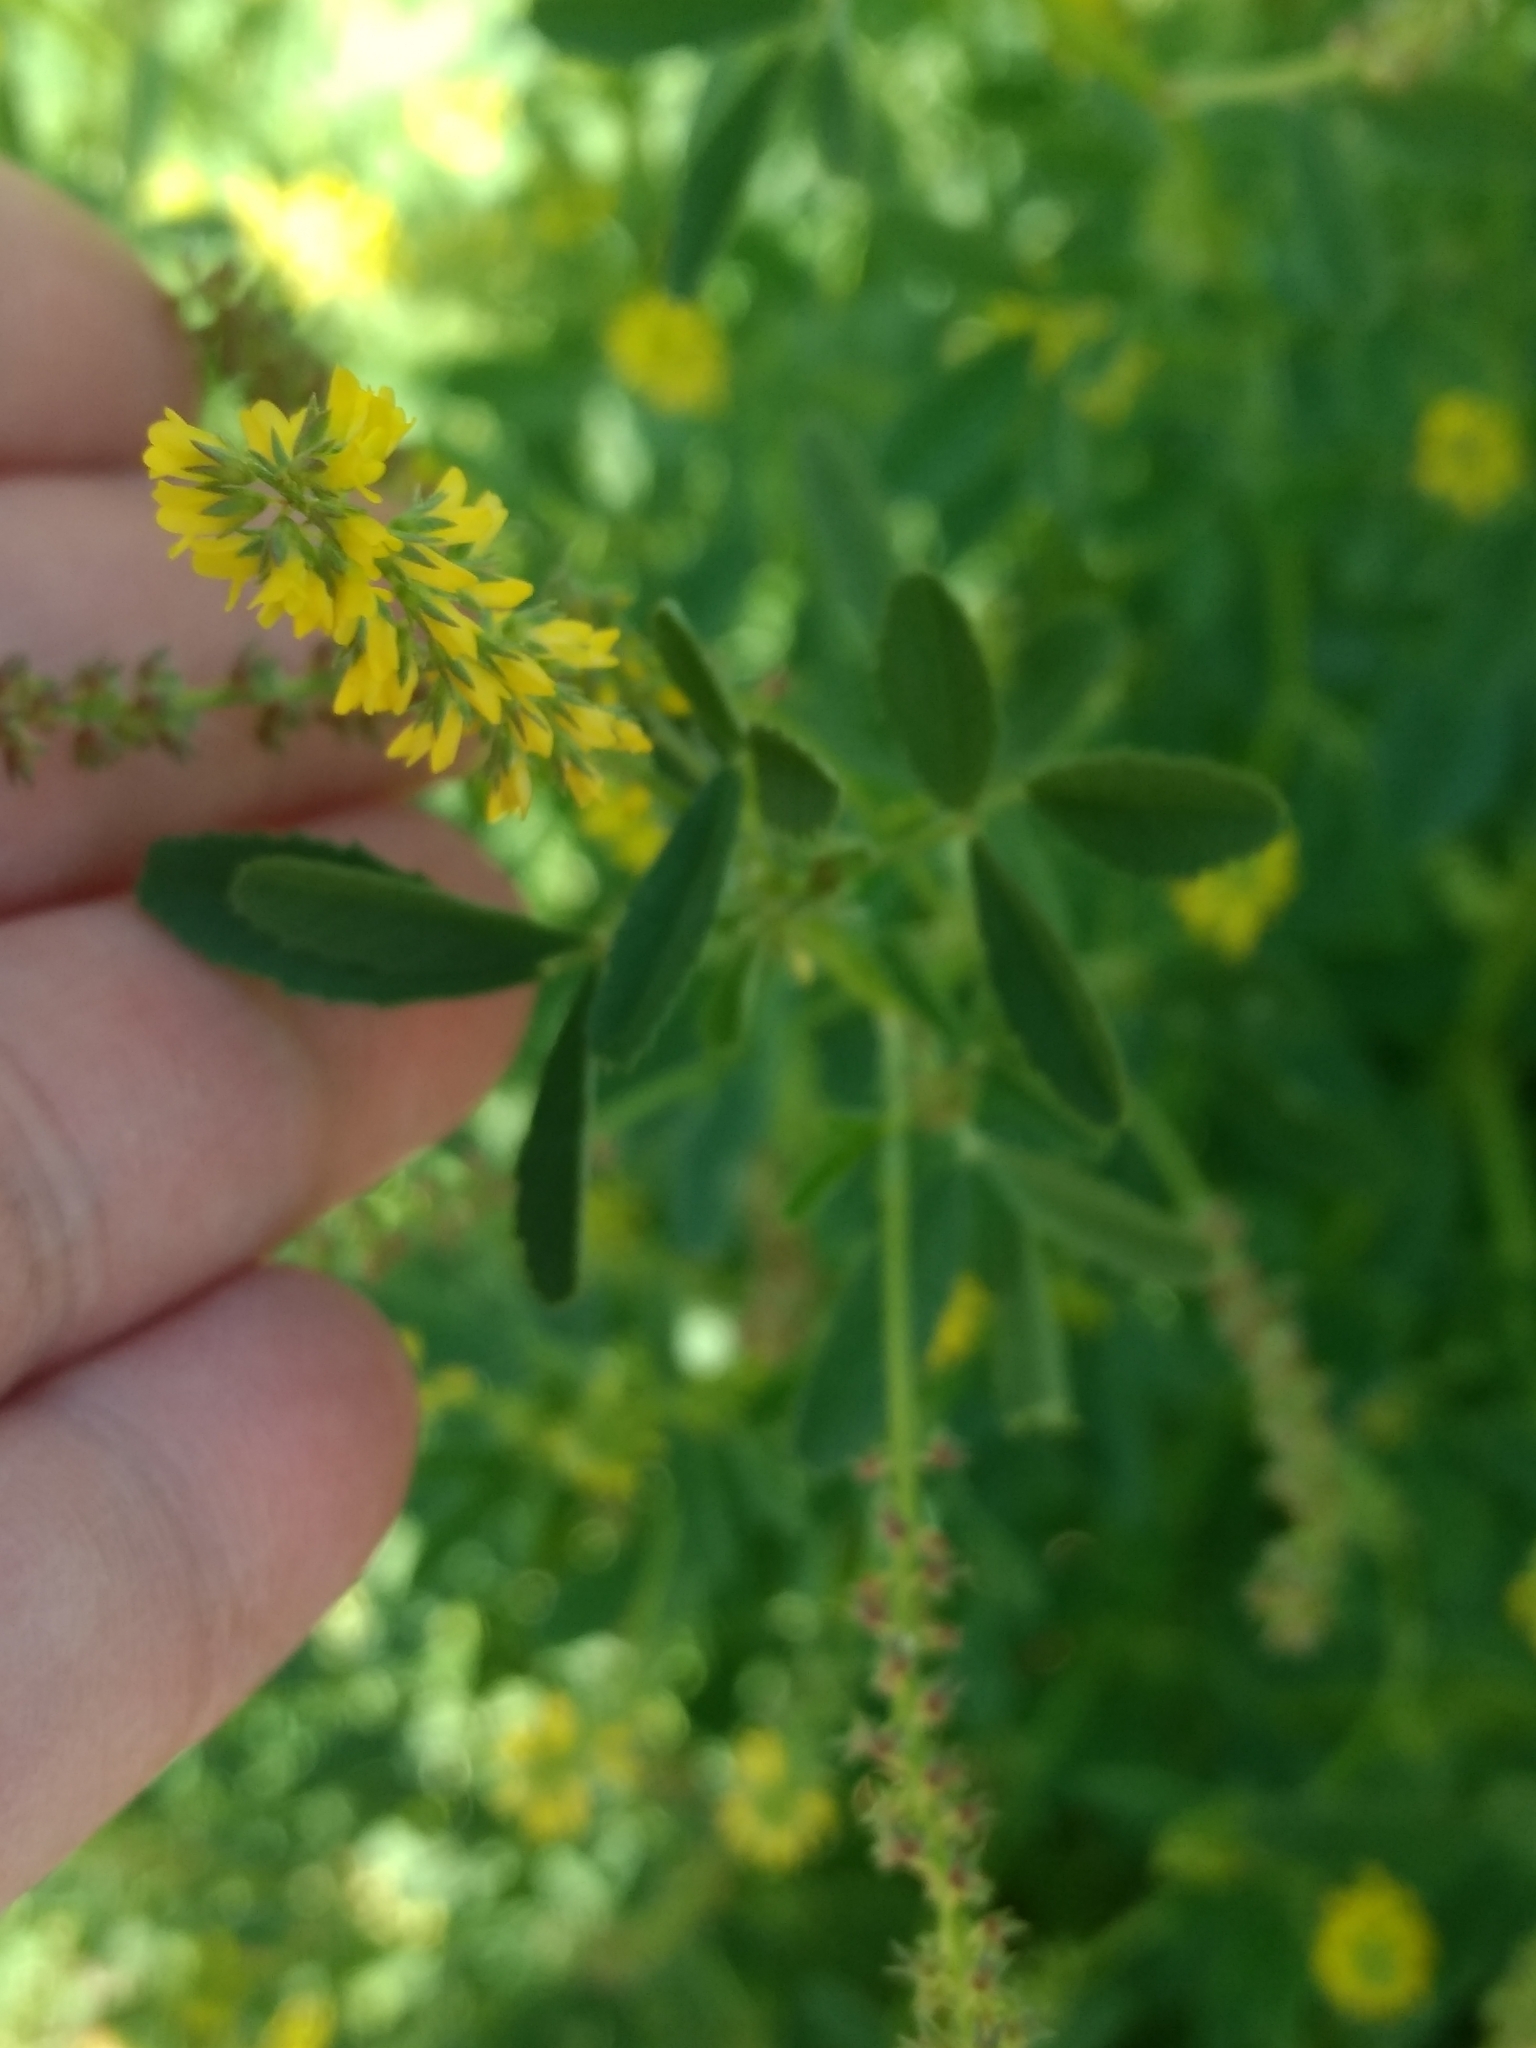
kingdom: Plantae
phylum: Tracheophyta
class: Magnoliopsida
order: Fabales
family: Fabaceae
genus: Melilotus
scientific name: Melilotus indicus
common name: Small melilot
